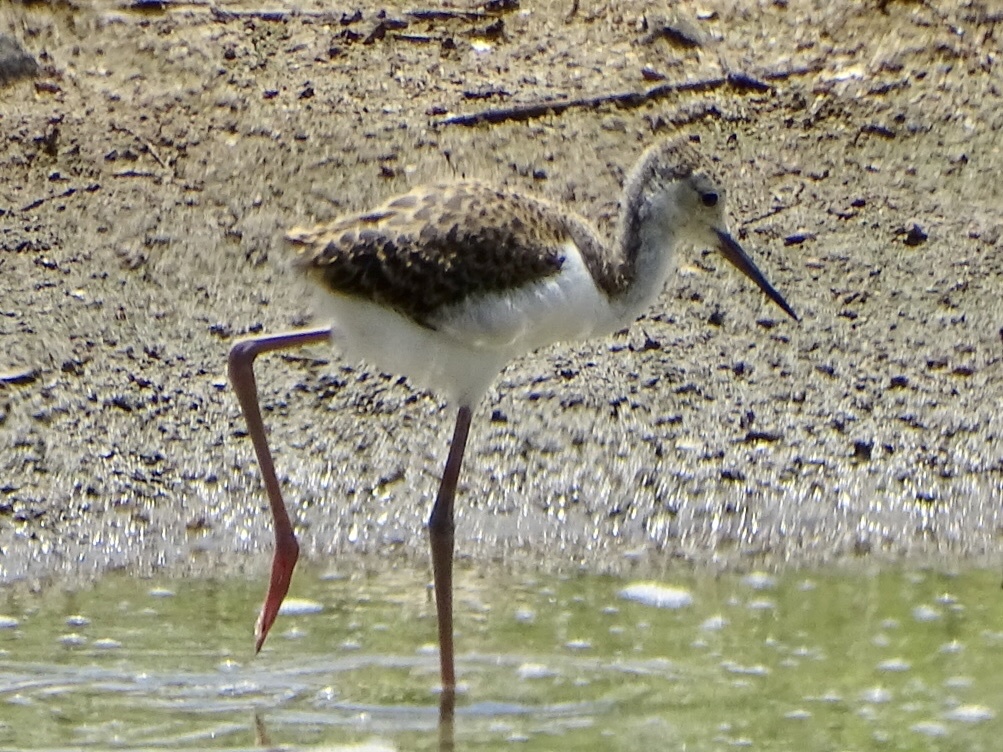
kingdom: Animalia
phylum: Chordata
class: Aves
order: Charadriiformes
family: Recurvirostridae
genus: Himantopus
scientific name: Himantopus himantopus
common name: Black-winged stilt
